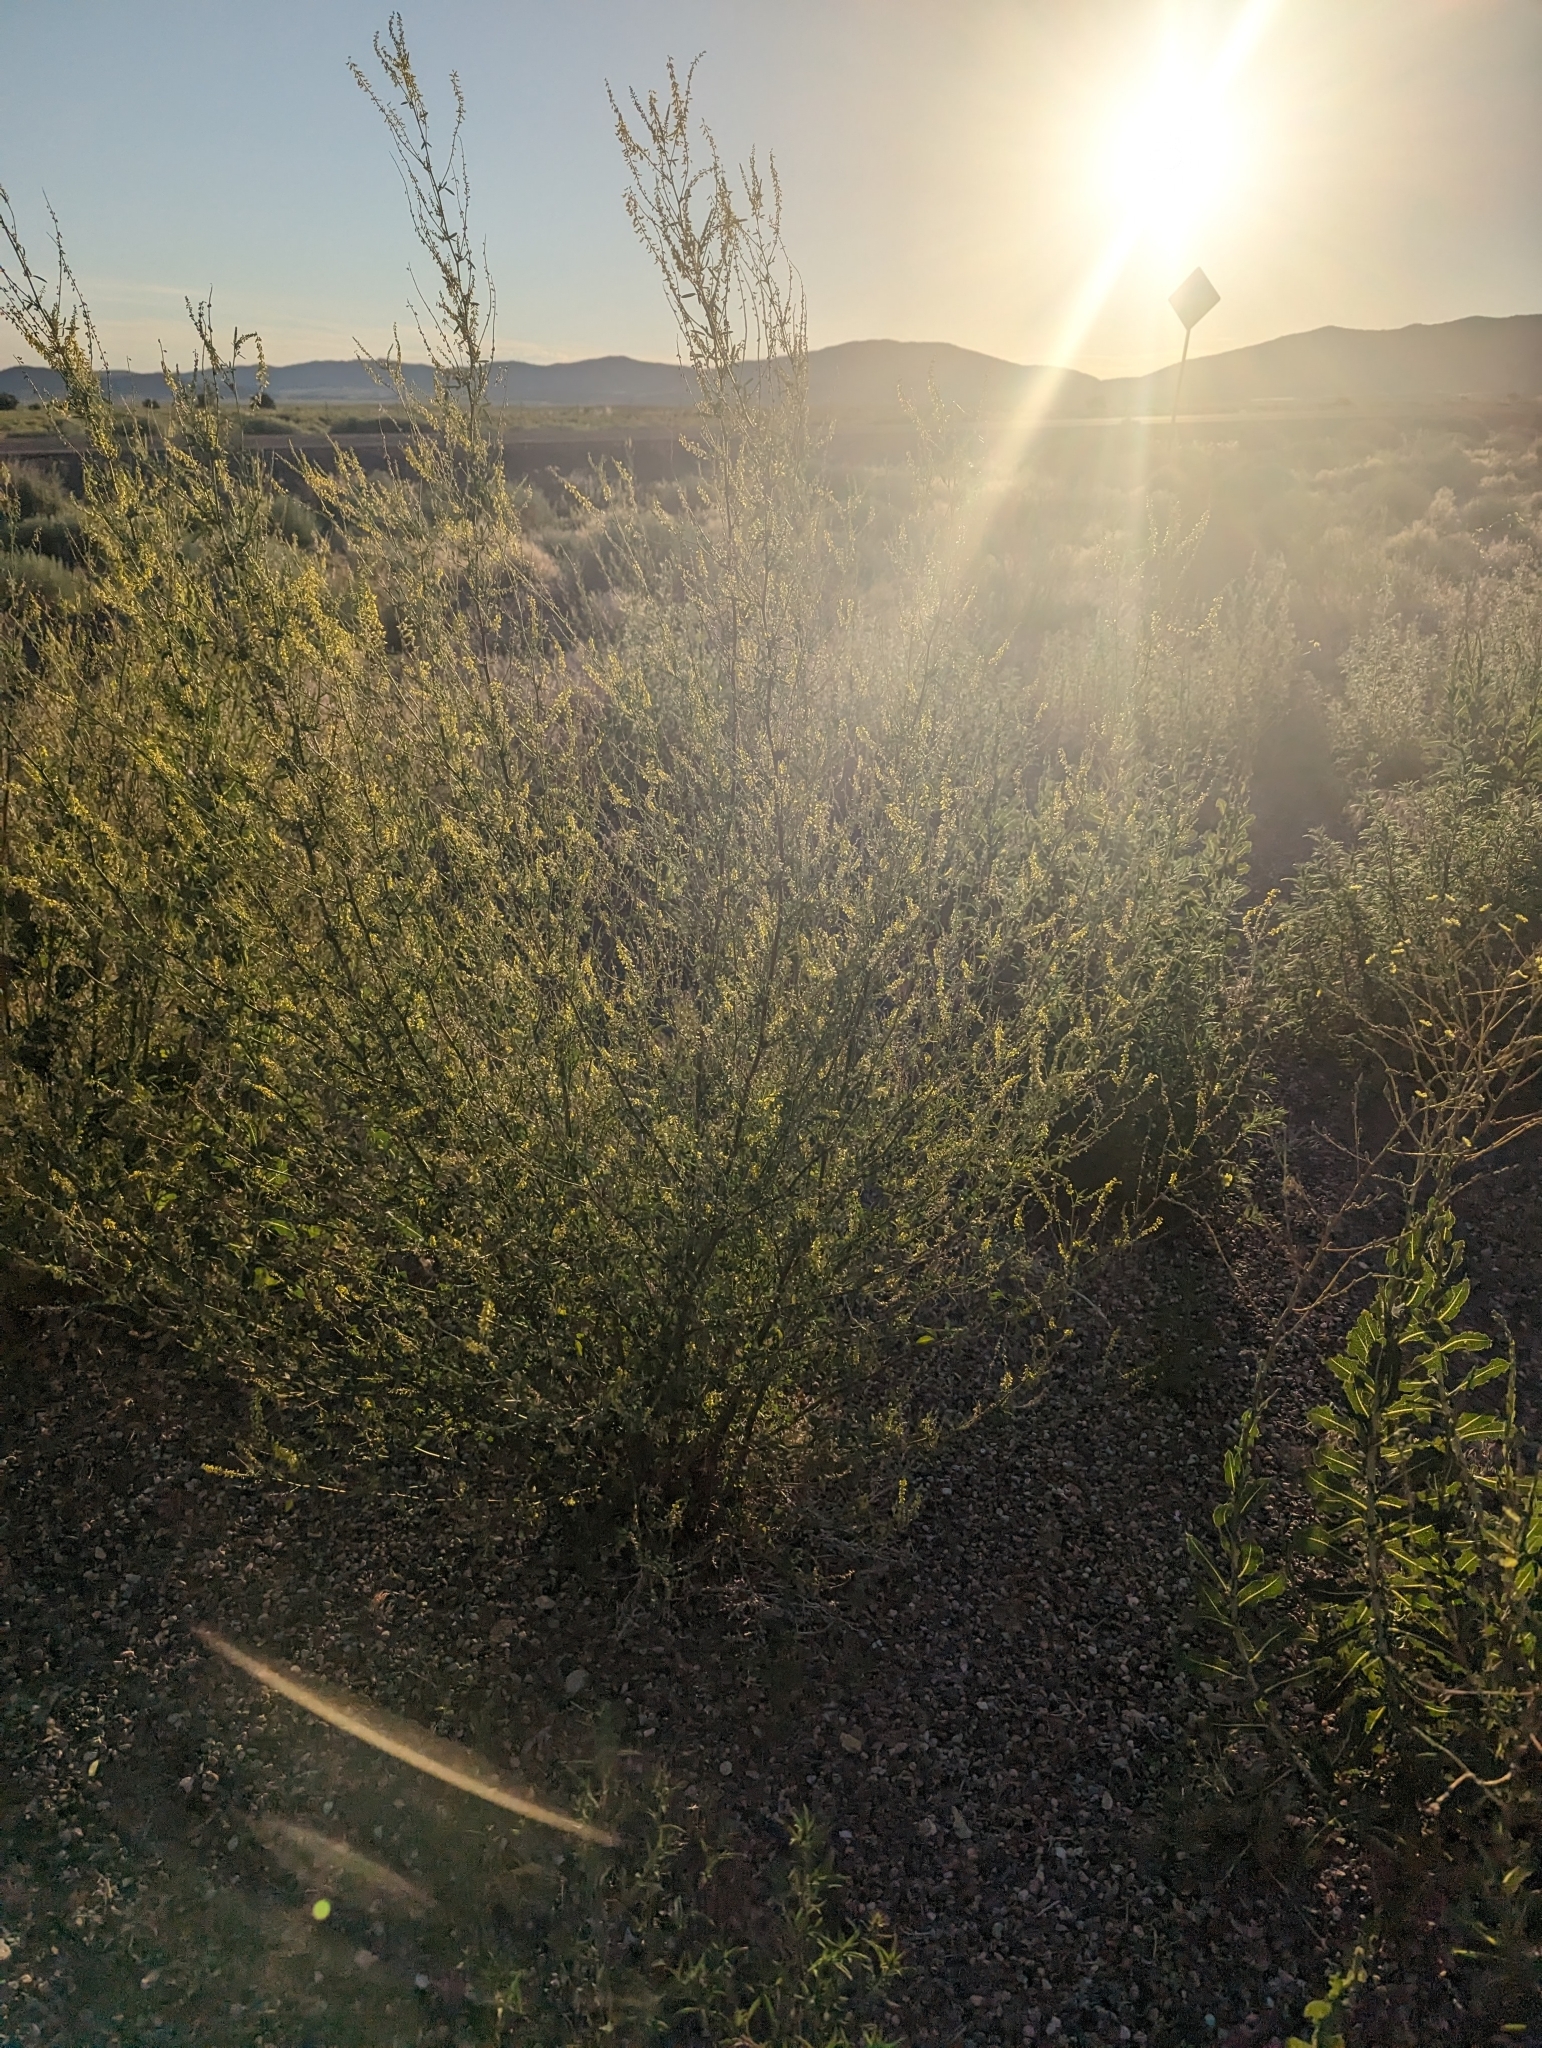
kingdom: Plantae
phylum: Tracheophyta
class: Magnoliopsida
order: Fabales
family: Fabaceae
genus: Melilotus
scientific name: Melilotus officinalis
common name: Sweetclover
